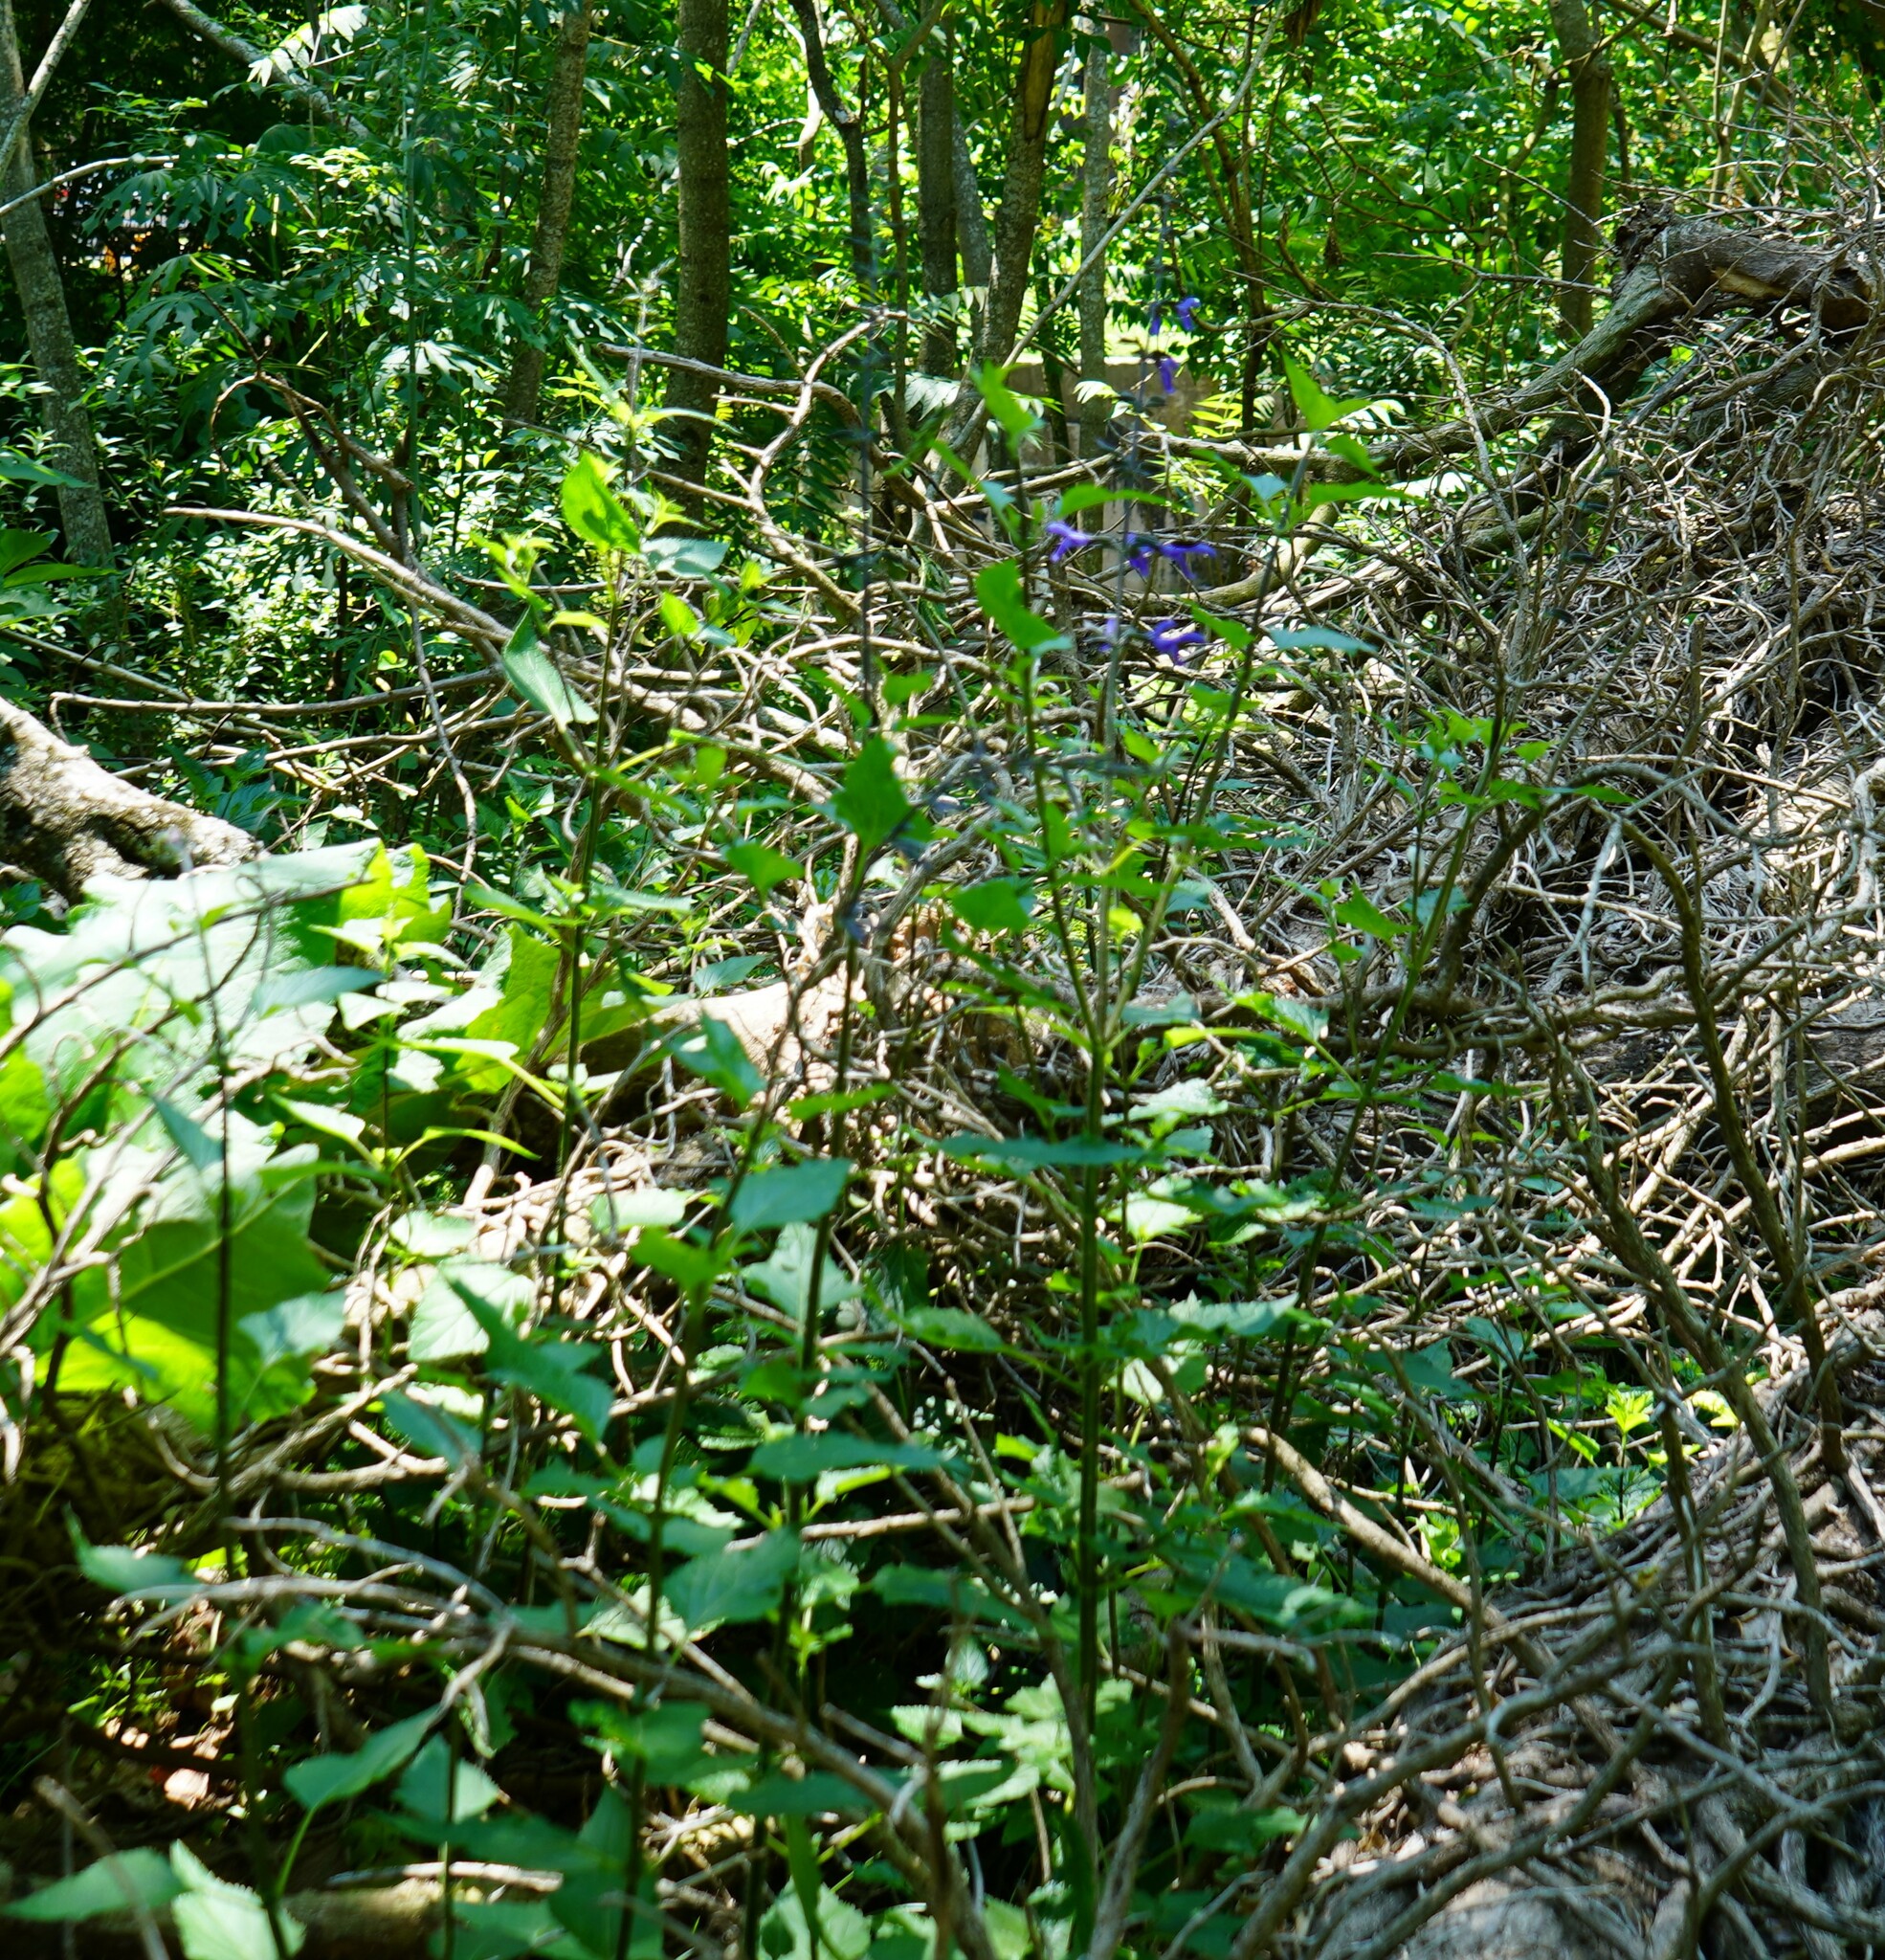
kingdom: Plantae
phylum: Tracheophyta
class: Magnoliopsida
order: Lamiales
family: Lamiaceae
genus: Salvia
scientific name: Salvia guaranitica
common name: Anise-scented sage
